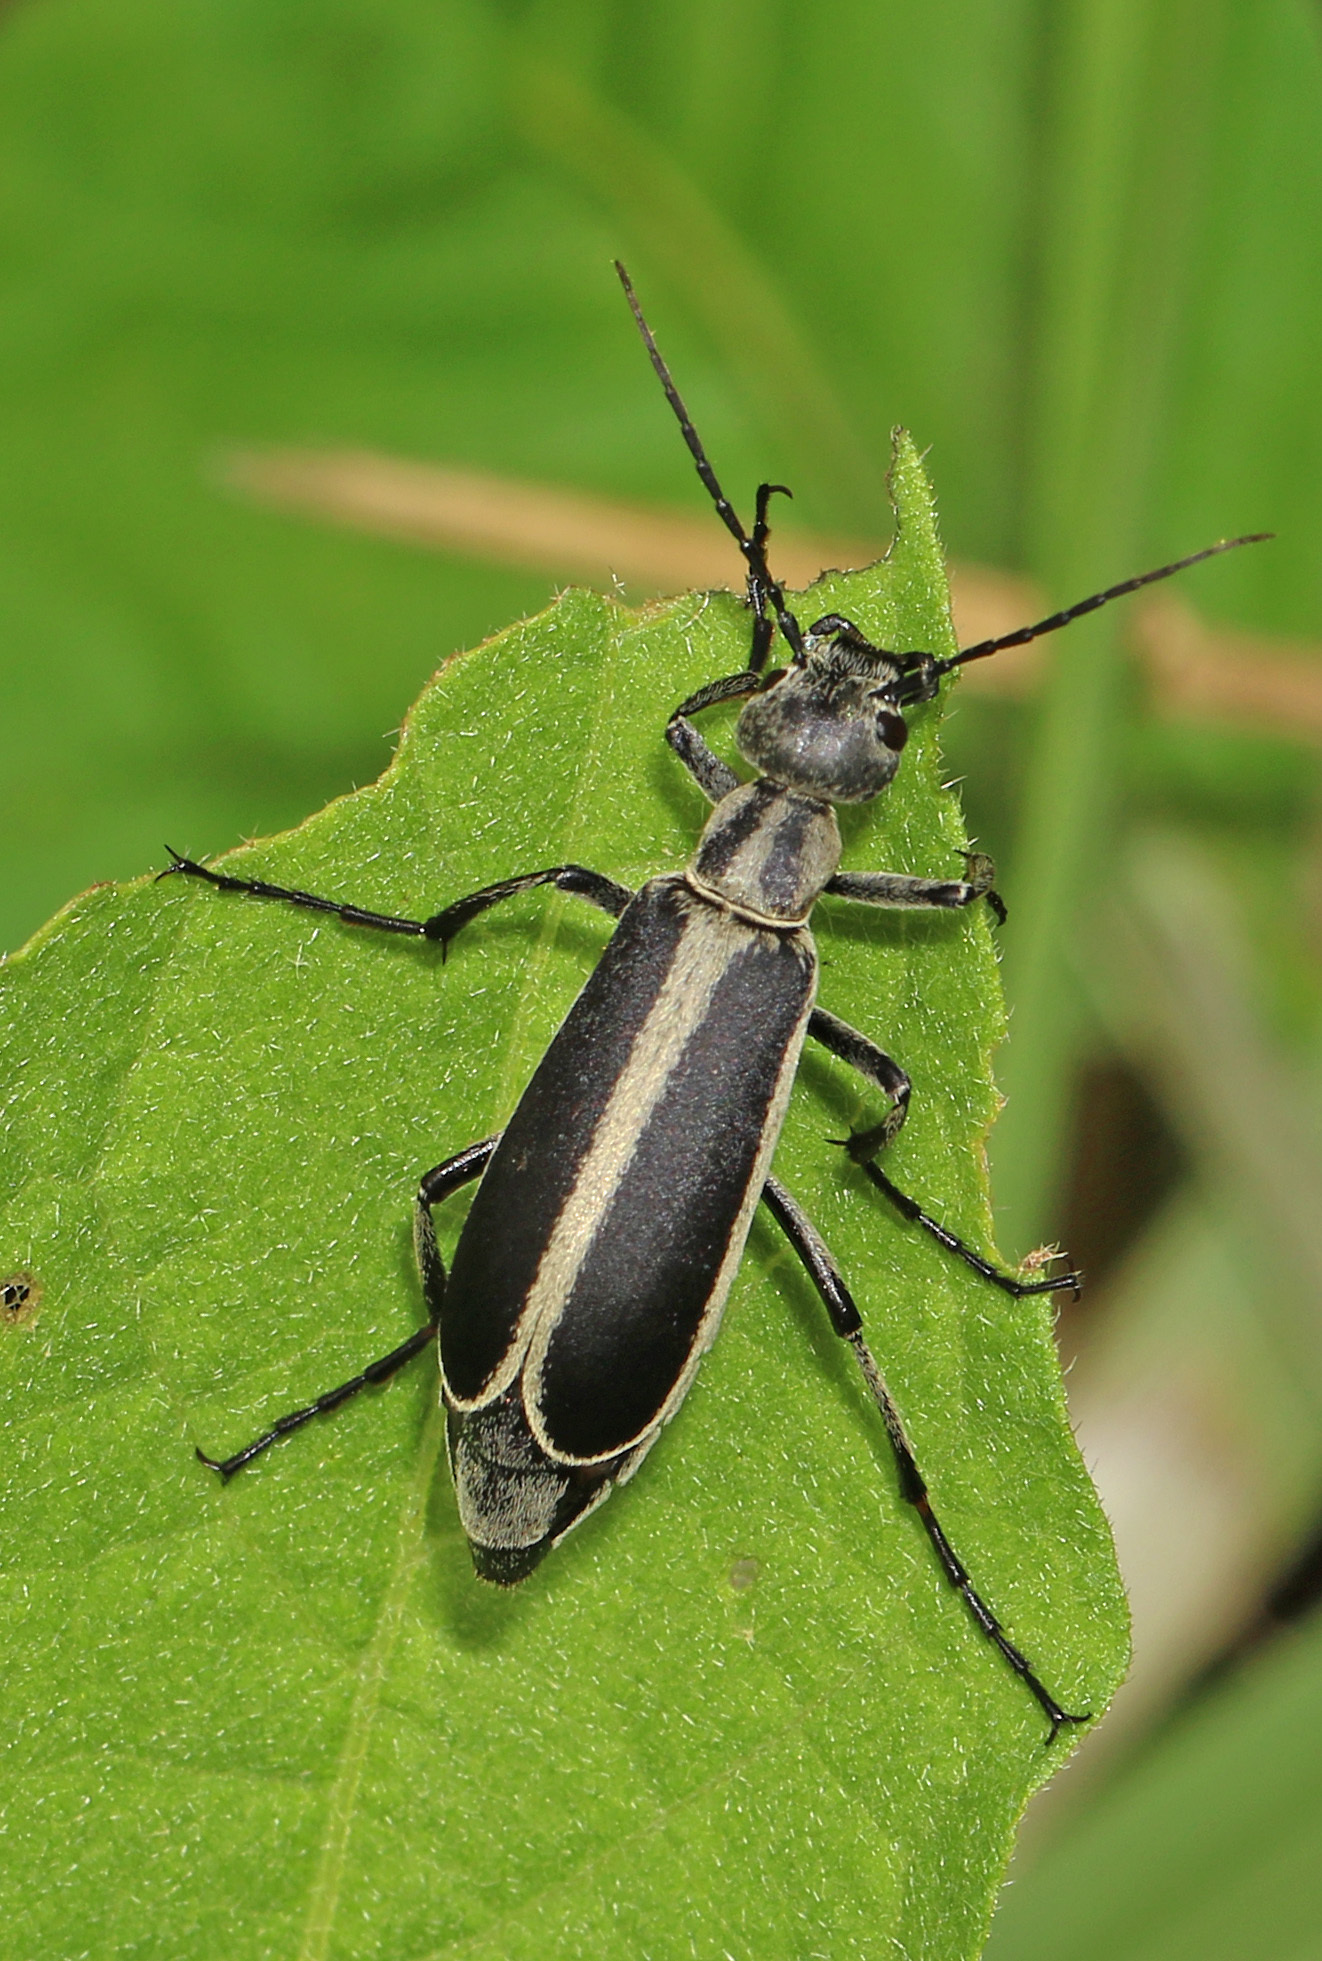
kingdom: Animalia
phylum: Arthropoda
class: Insecta
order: Coleoptera
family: Meloidae
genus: Epicauta
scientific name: Epicauta funebris
